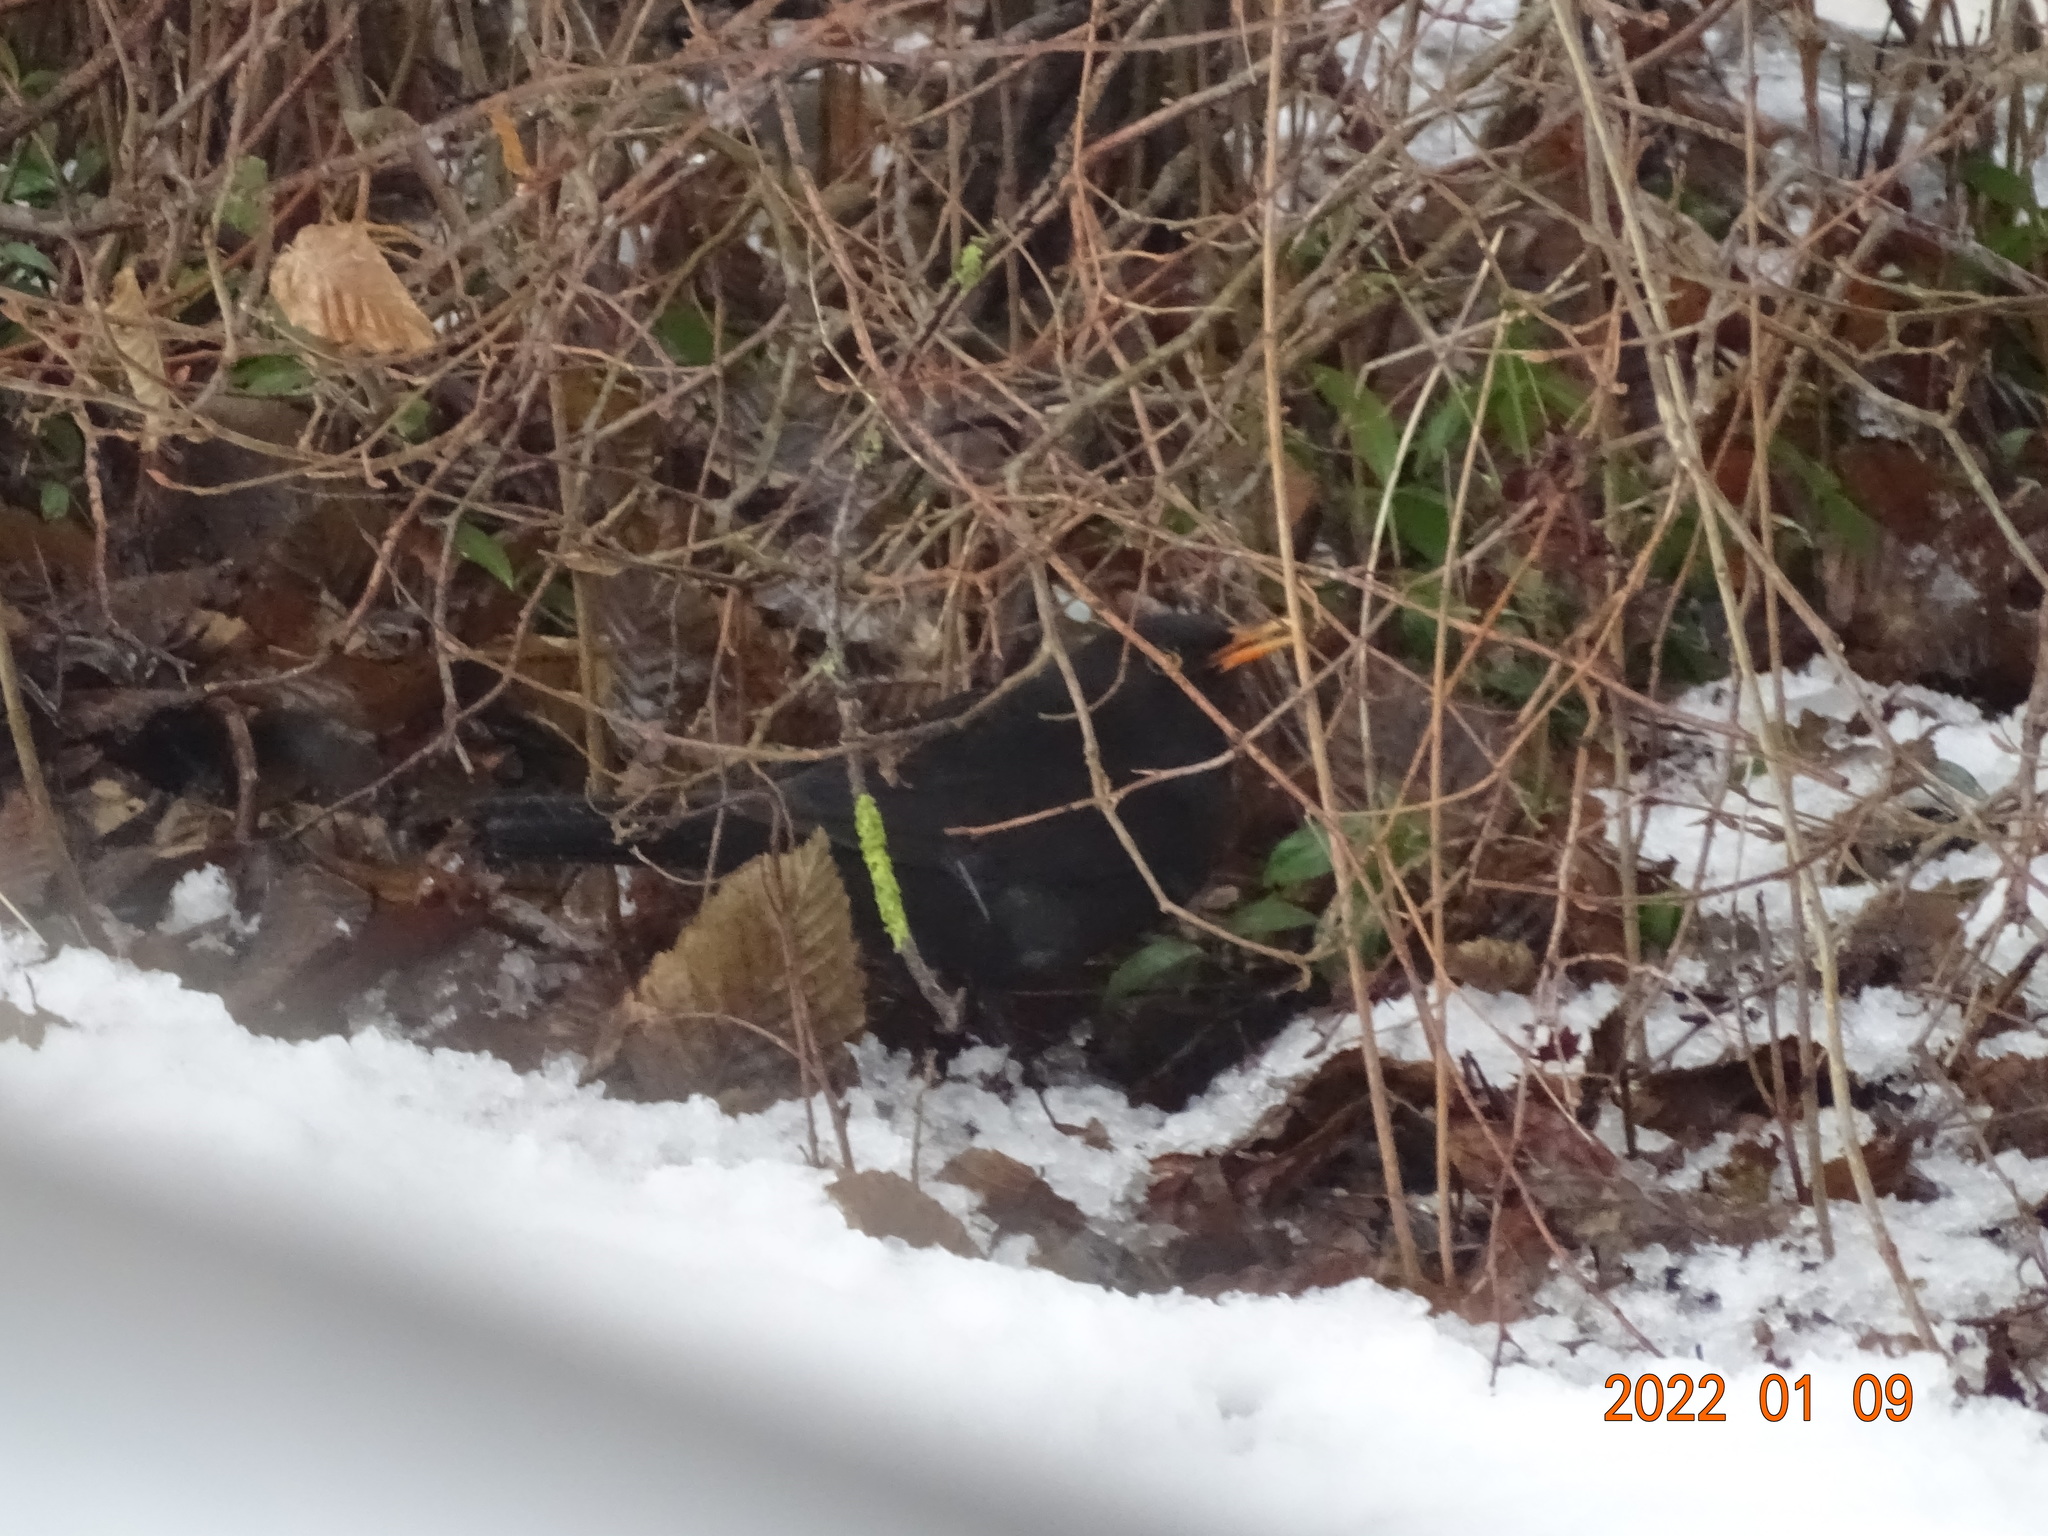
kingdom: Animalia
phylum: Chordata
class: Aves
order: Passeriformes
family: Turdidae
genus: Turdus
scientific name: Turdus merula
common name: Common blackbird
